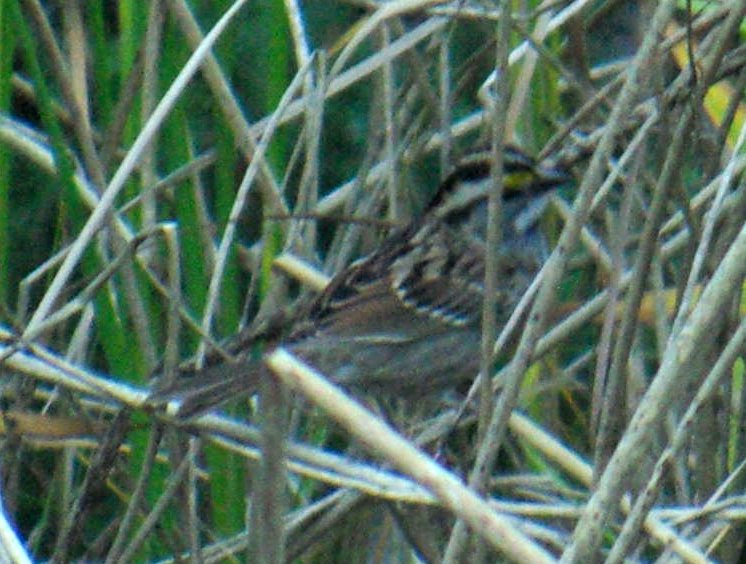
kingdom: Animalia
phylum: Chordata
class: Aves
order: Passeriformes
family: Passerellidae
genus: Zonotrichia
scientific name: Zonotrichia albicollis
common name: White-throated sparrow
